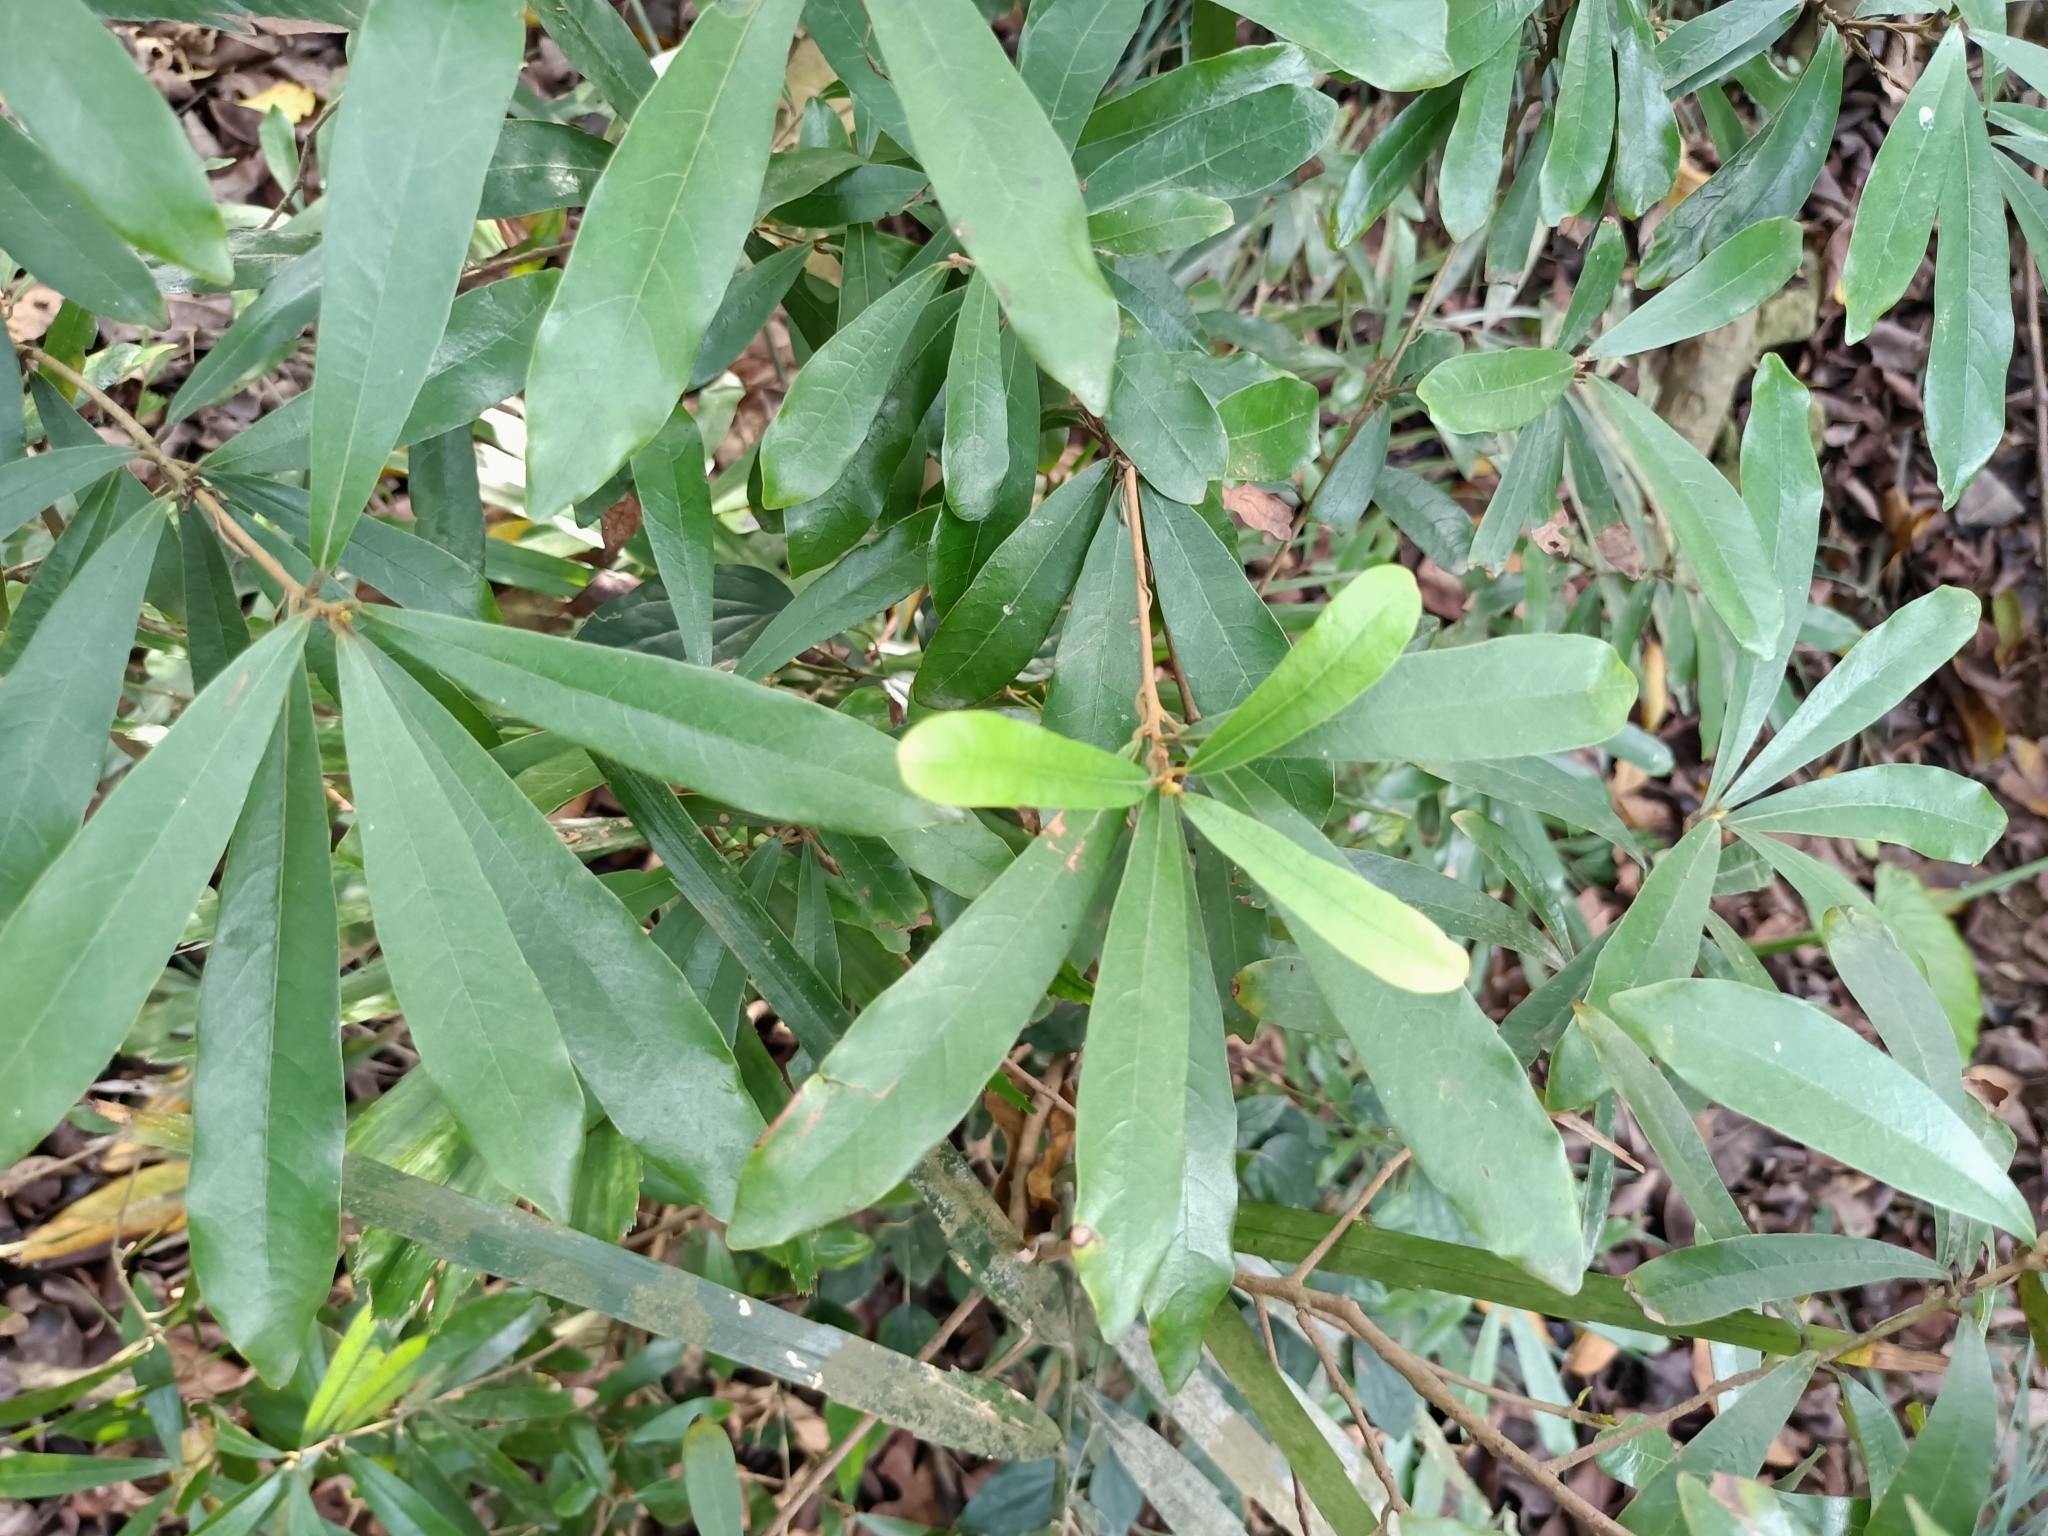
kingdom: Plantae
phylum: Tracheophyta
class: Magnoliopsida
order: Laurales
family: Lauraceae
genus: Litsea
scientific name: Litsea hypophaea
